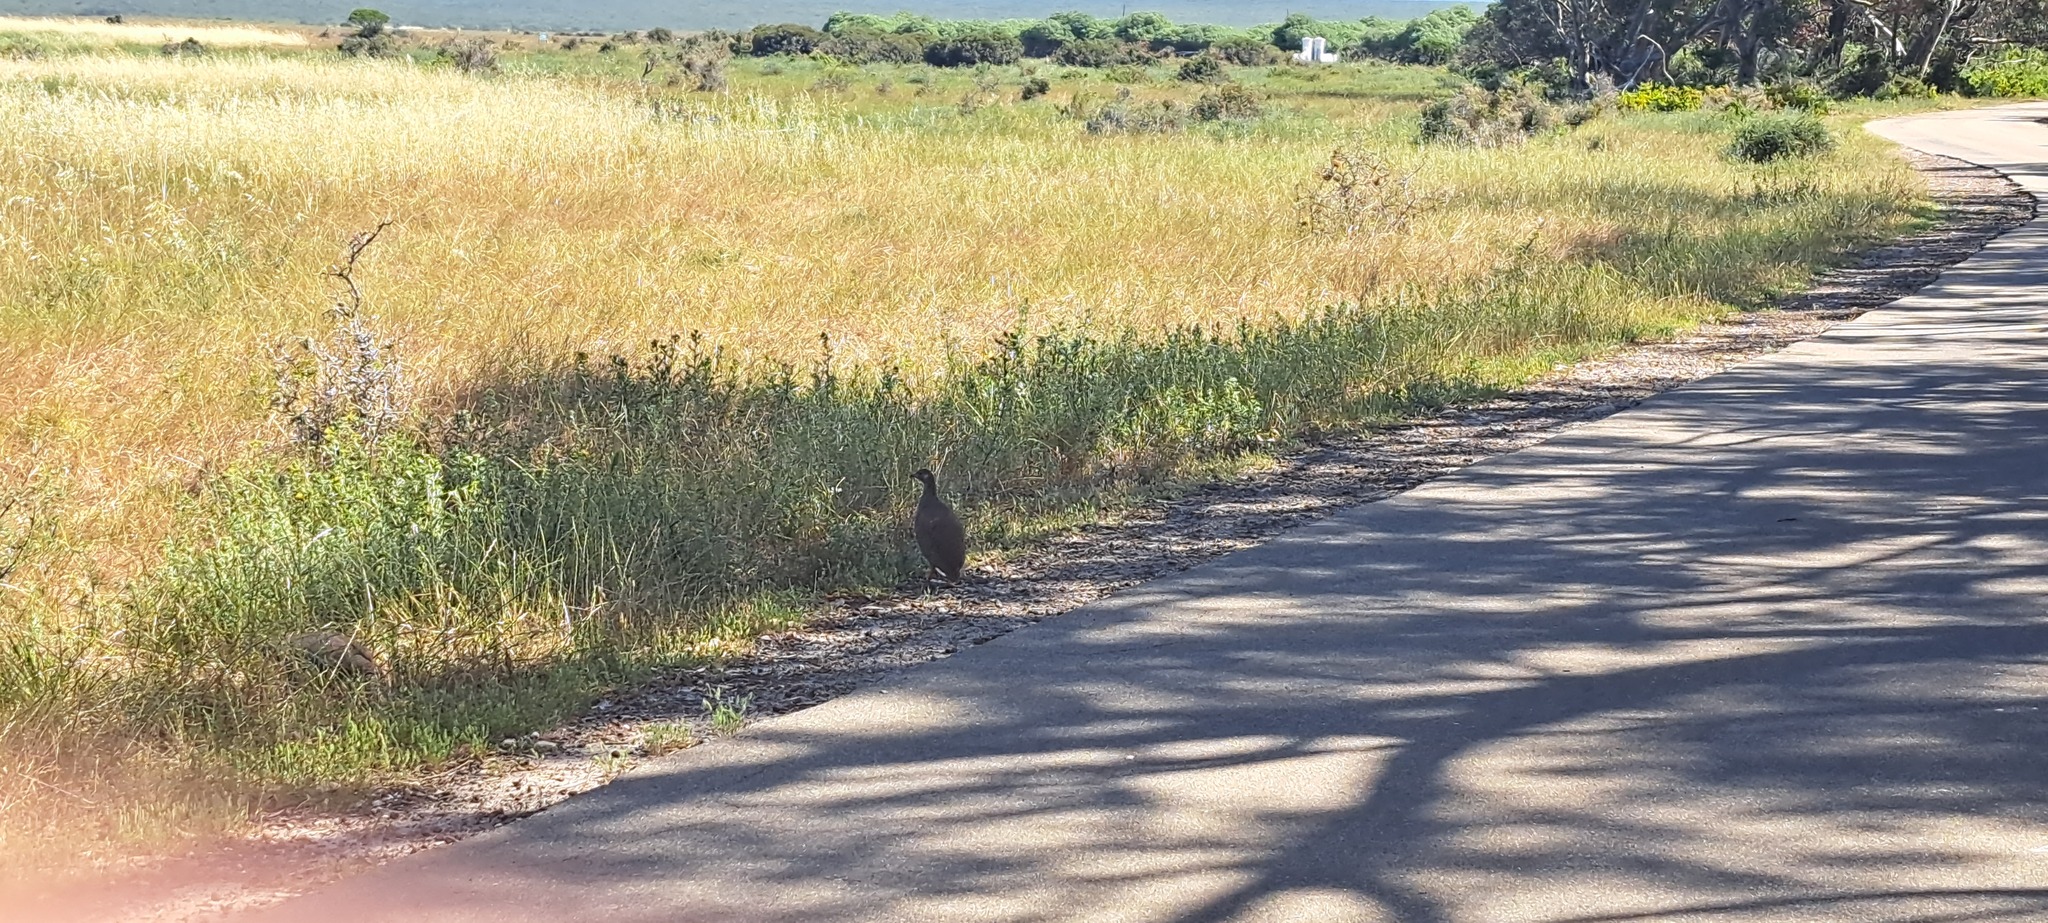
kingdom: Animalia
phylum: Chordata
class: Aves
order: Galliformes
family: Phasianidae
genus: Pternistis
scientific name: Pternistis capensis
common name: Cape spurfowl
